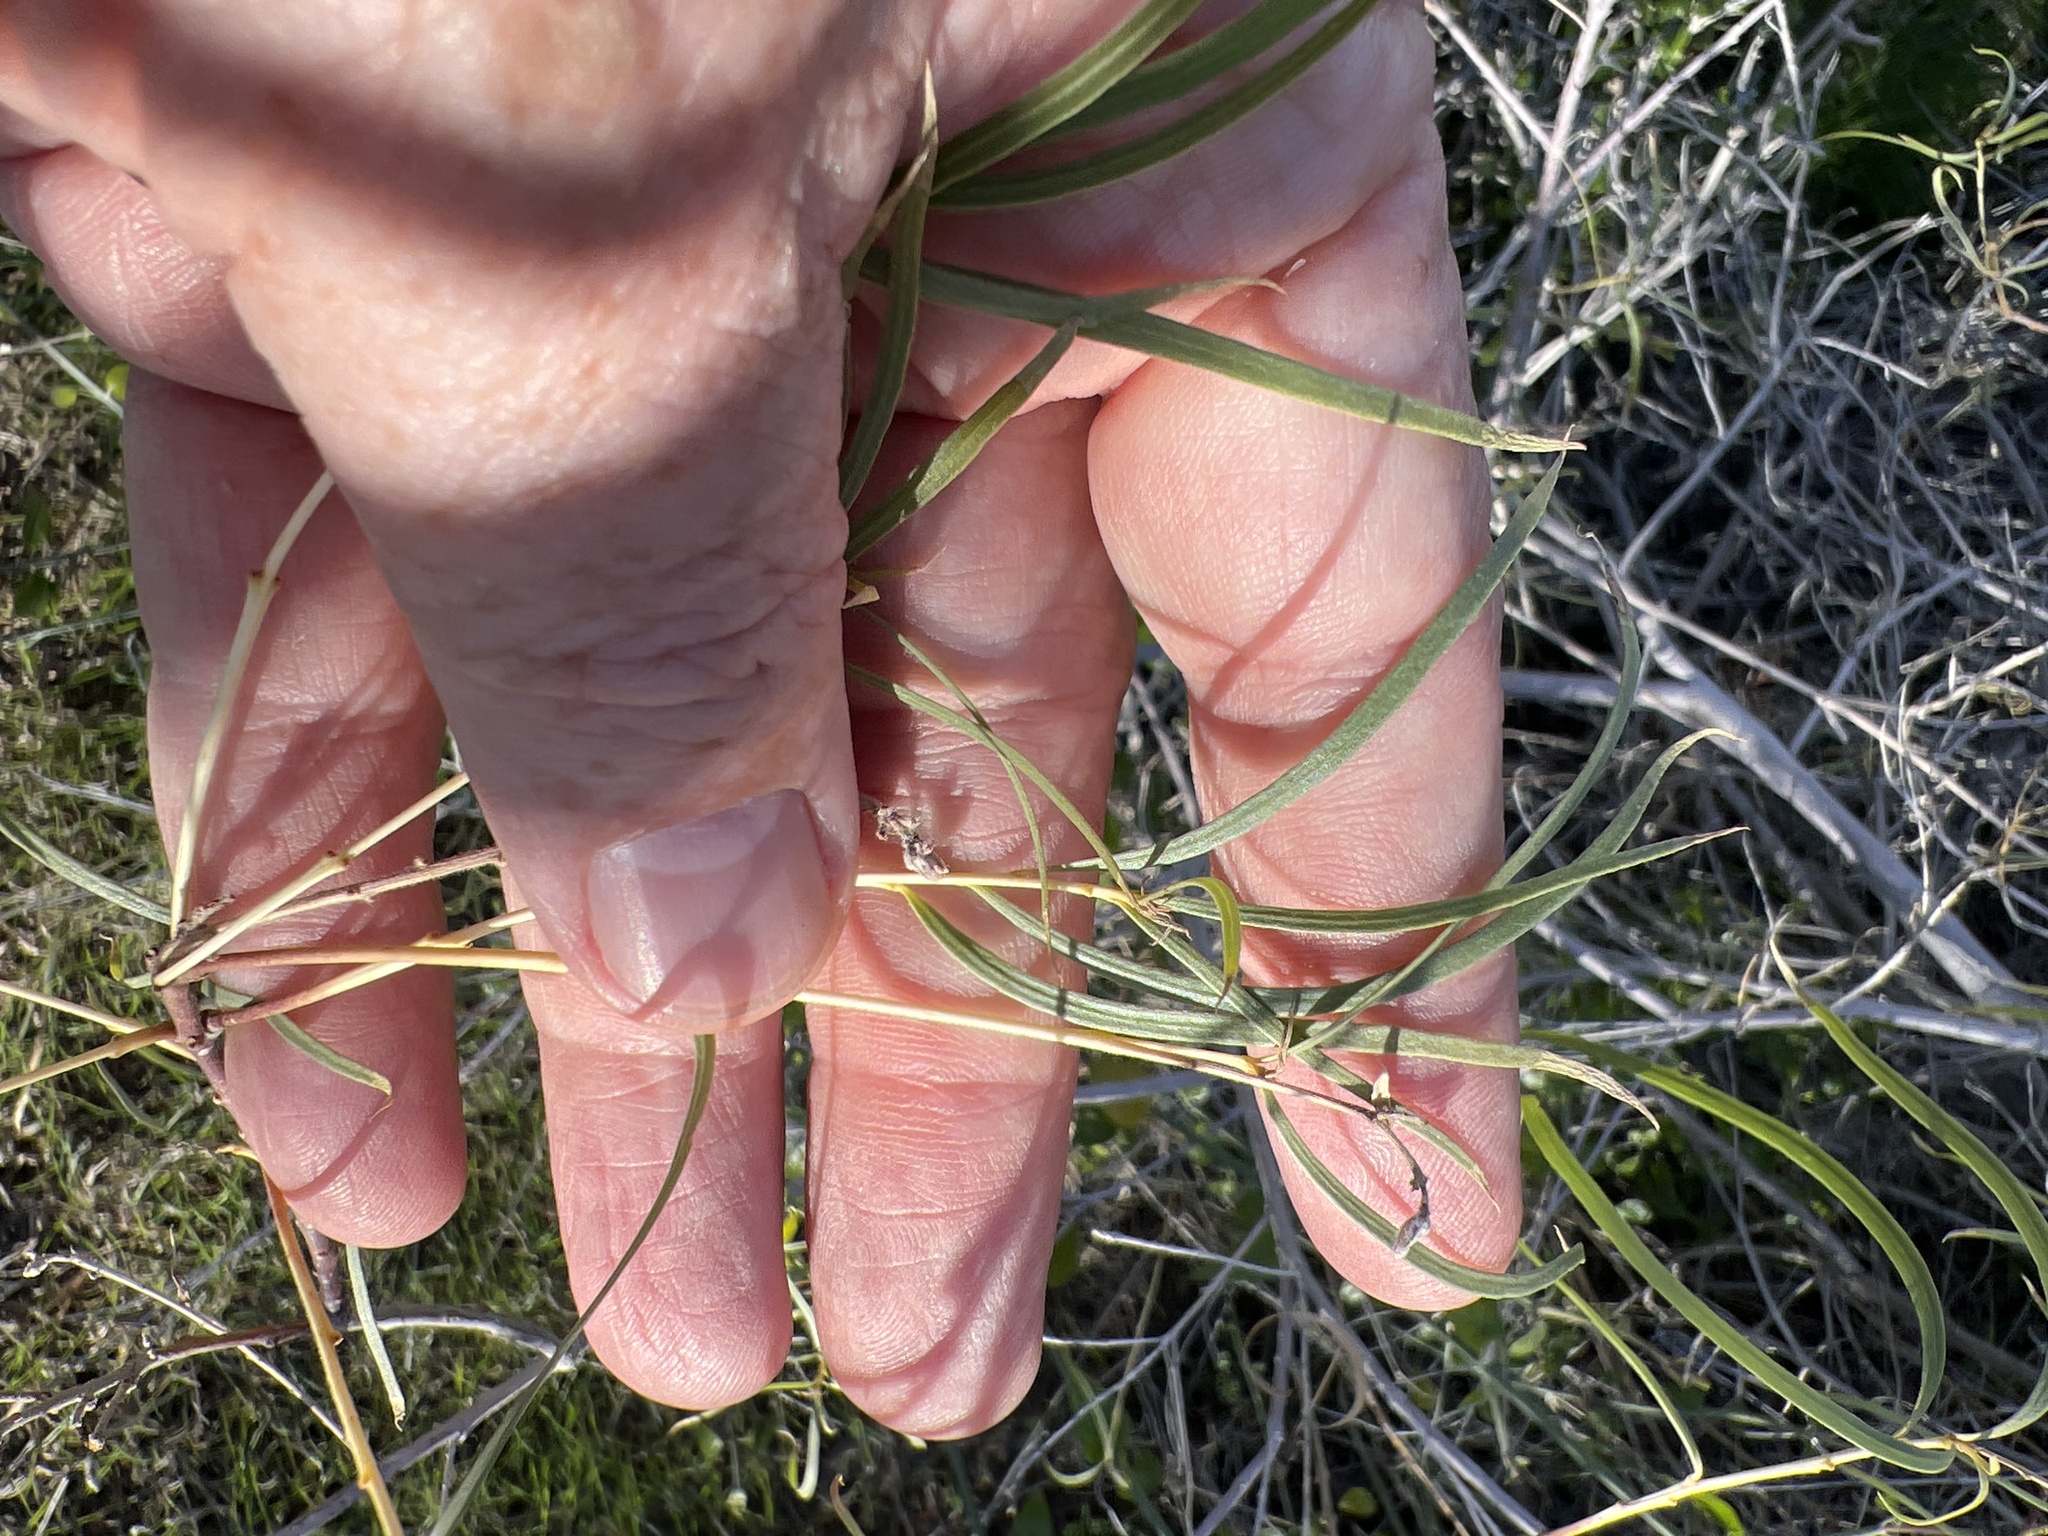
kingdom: Plantae
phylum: Tracheophyta
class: Magnoliopsida
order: Lamiales
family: Bignoniaceae
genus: Chilopsis
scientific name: Chilopsis linearis
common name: Desert-willow
